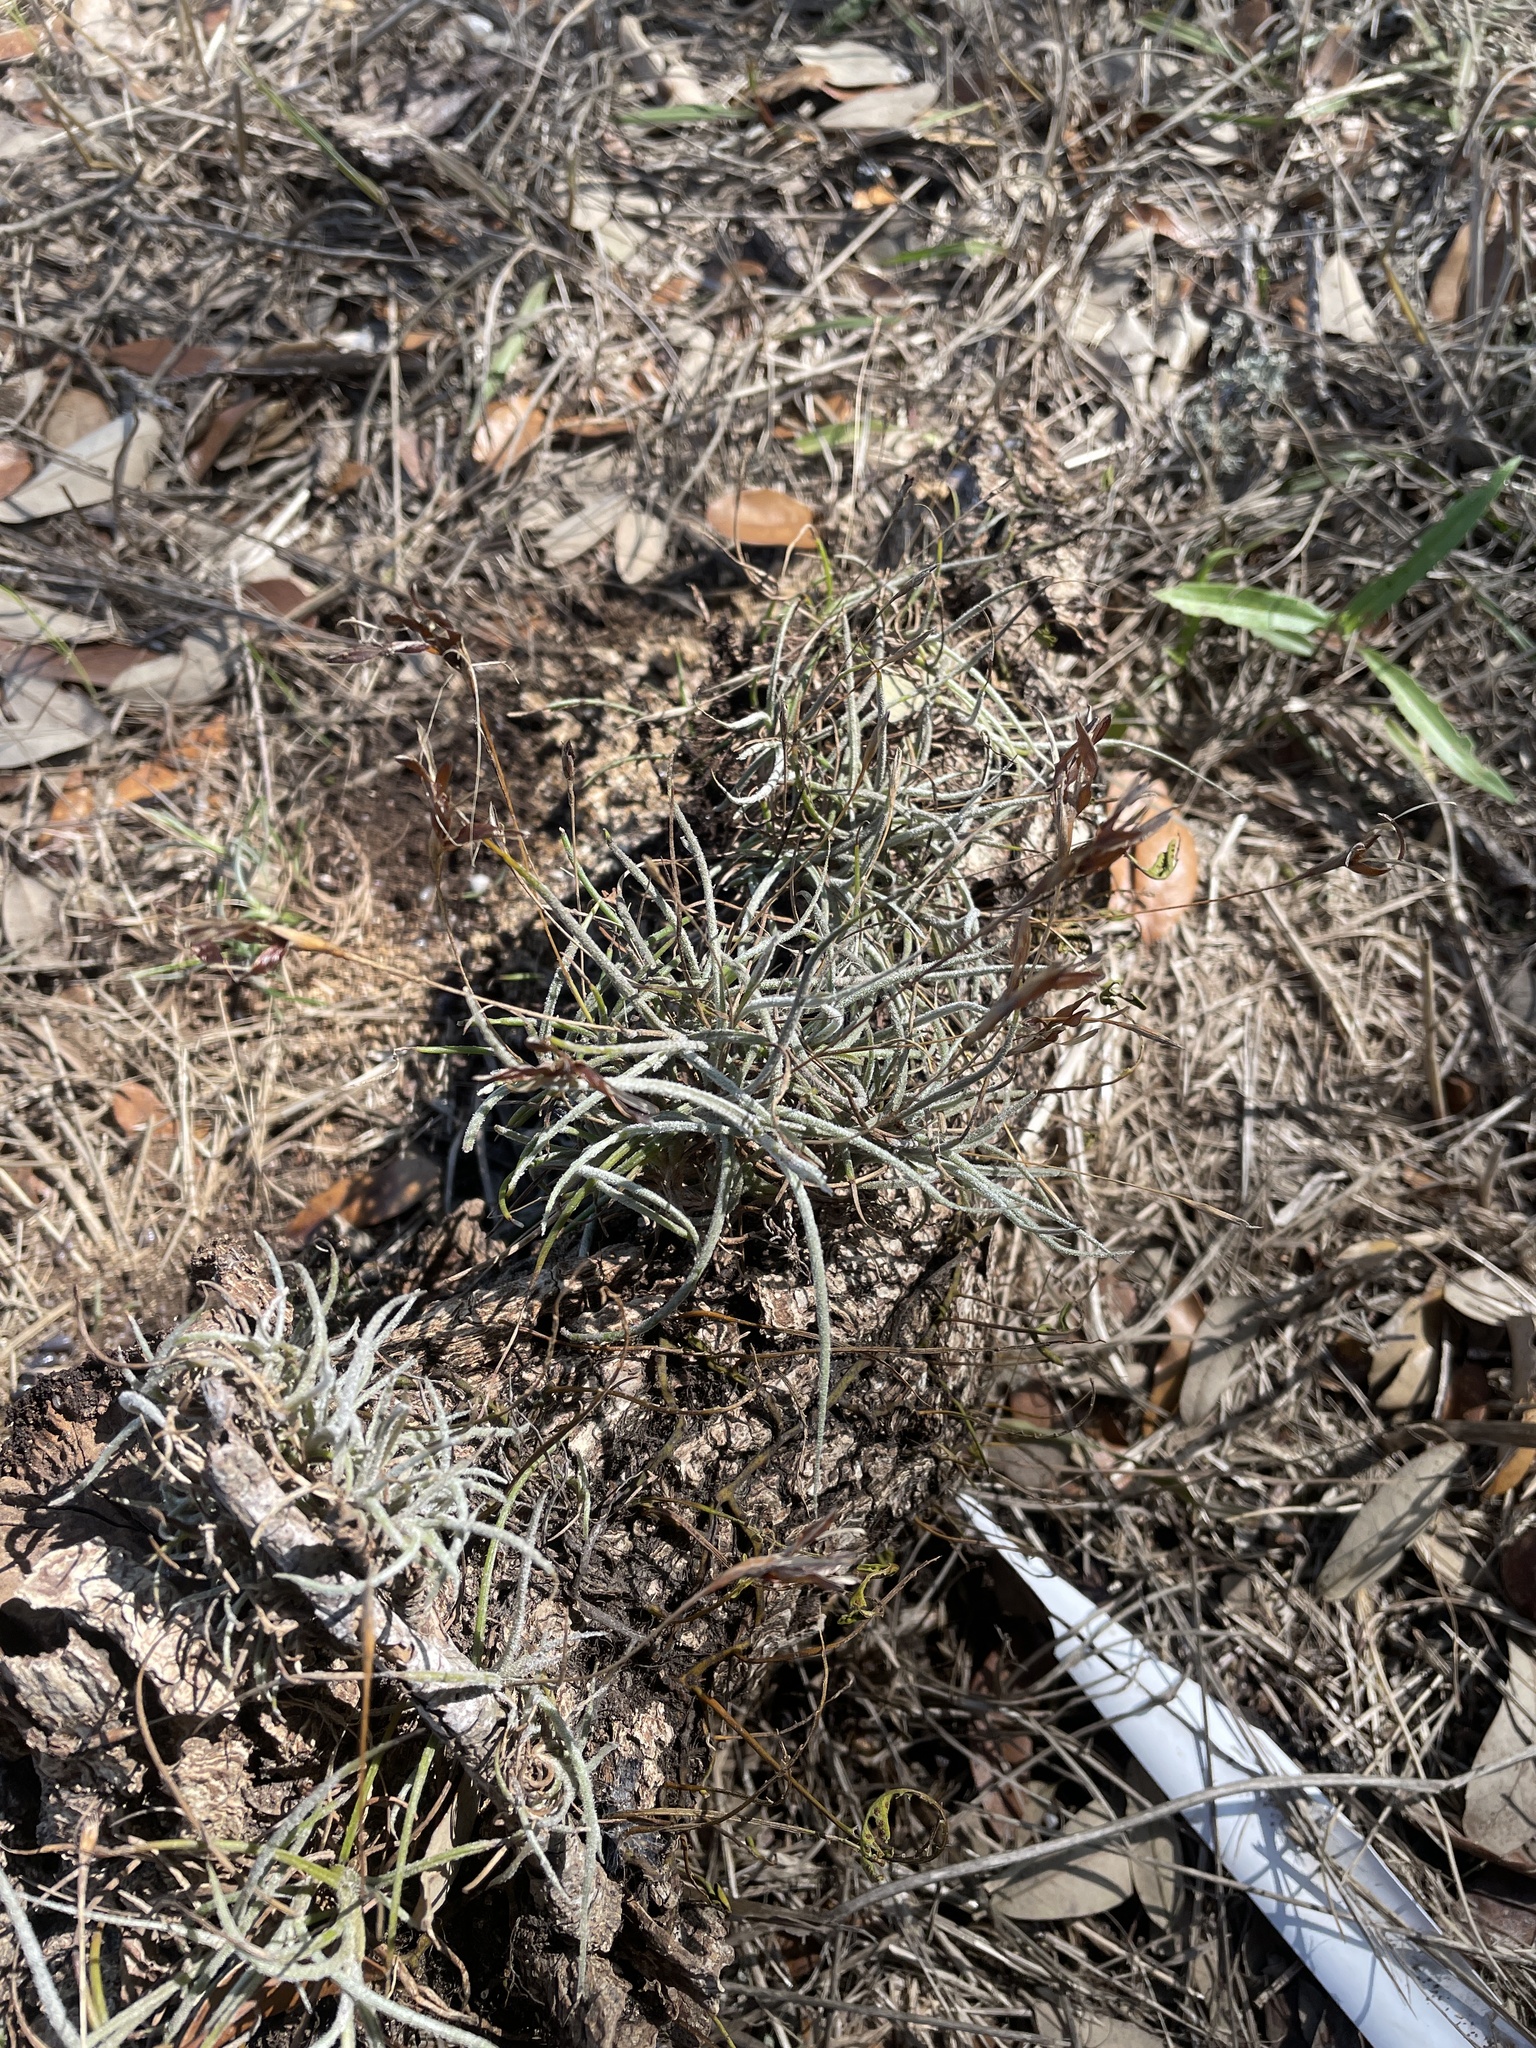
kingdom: Plantae
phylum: Tracheophyta
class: Liliopsida
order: Poales
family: Bromeliaceae
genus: Tillandsia
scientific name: Tillandsia recurvata
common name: Small ballmoss
